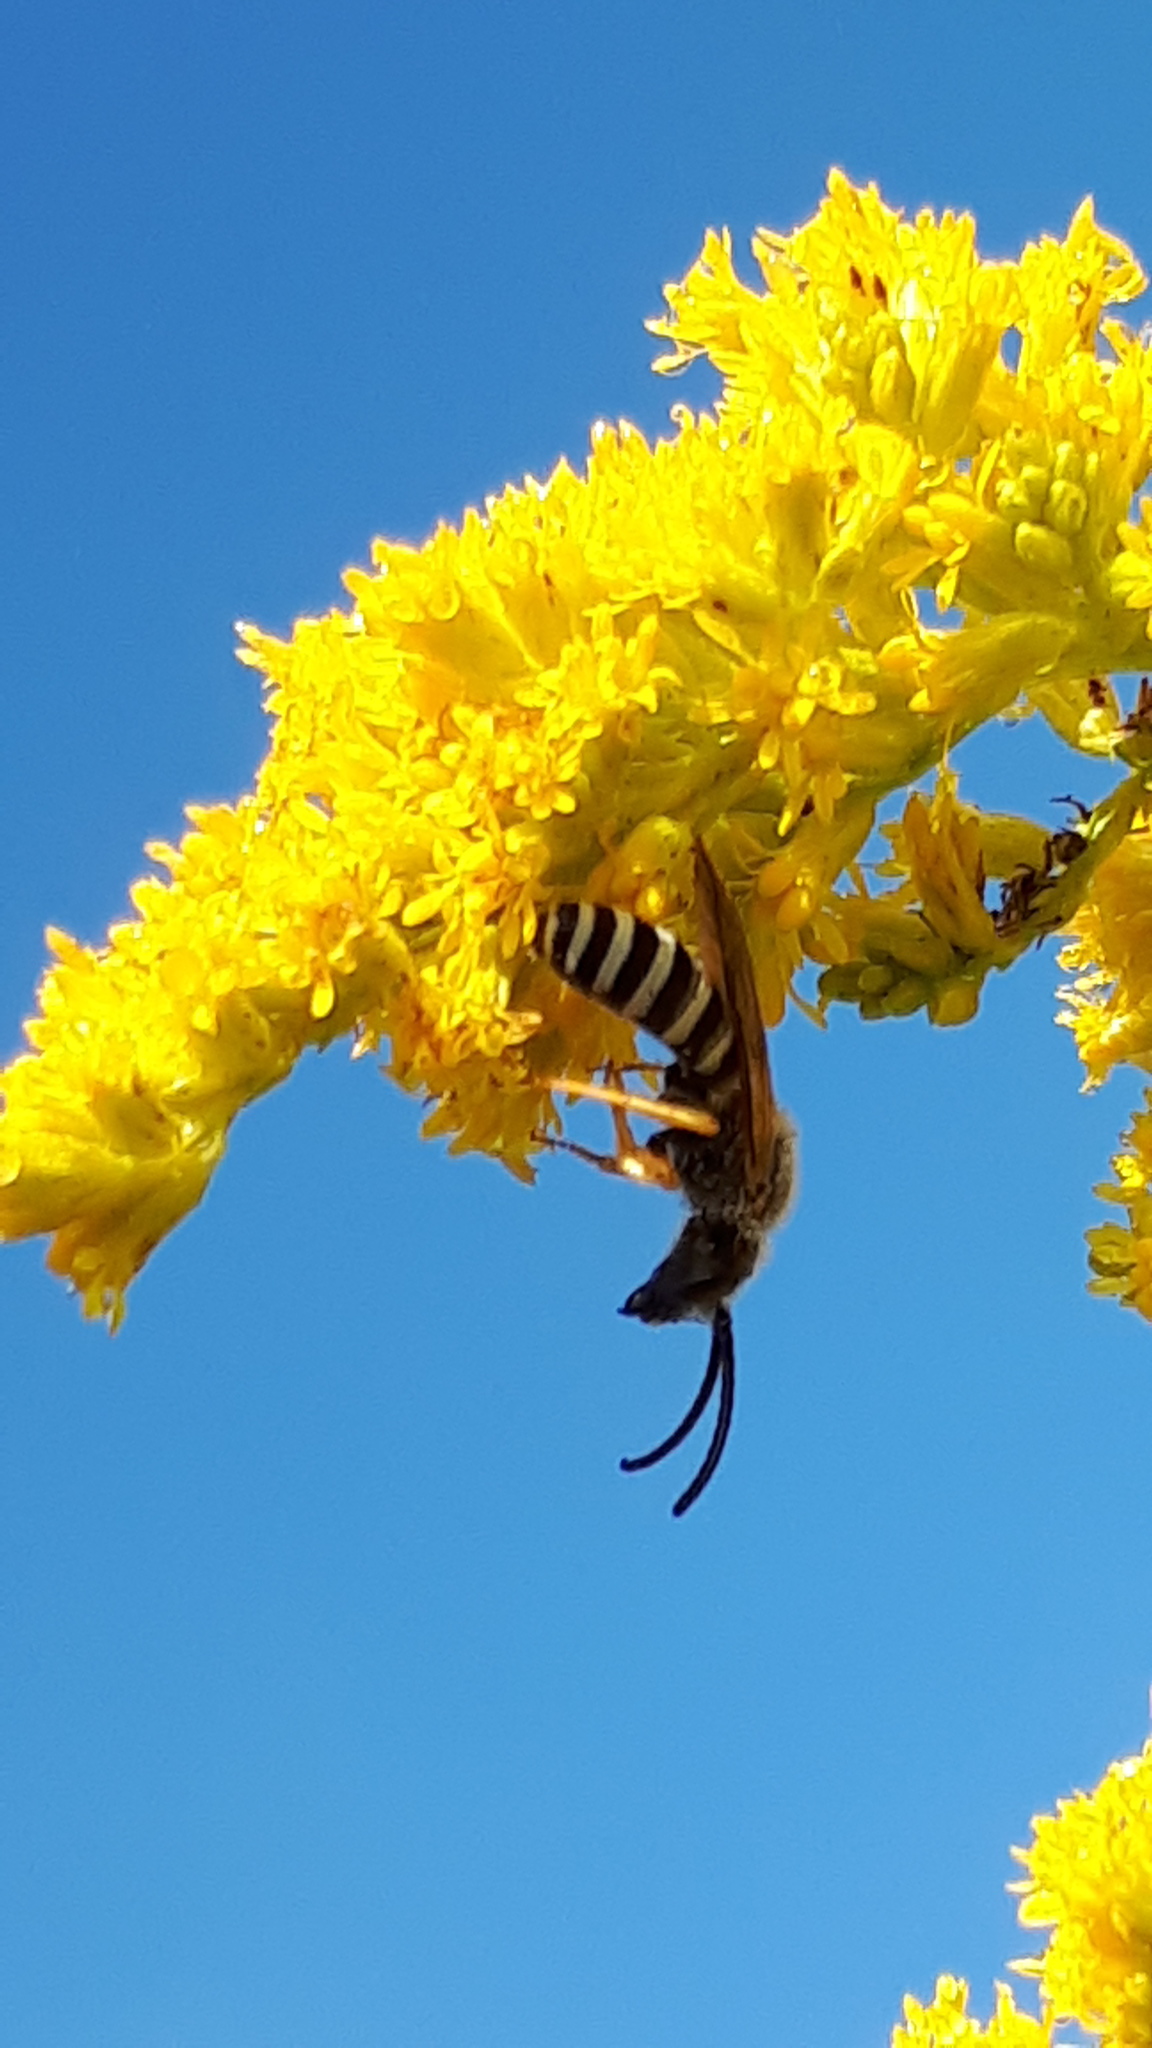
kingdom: Animalia
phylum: Arthropoda
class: Insecta
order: Hymenoptera
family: Halictidae
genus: Halictus
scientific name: Halictus scabiosae
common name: Great banded furrow bee
